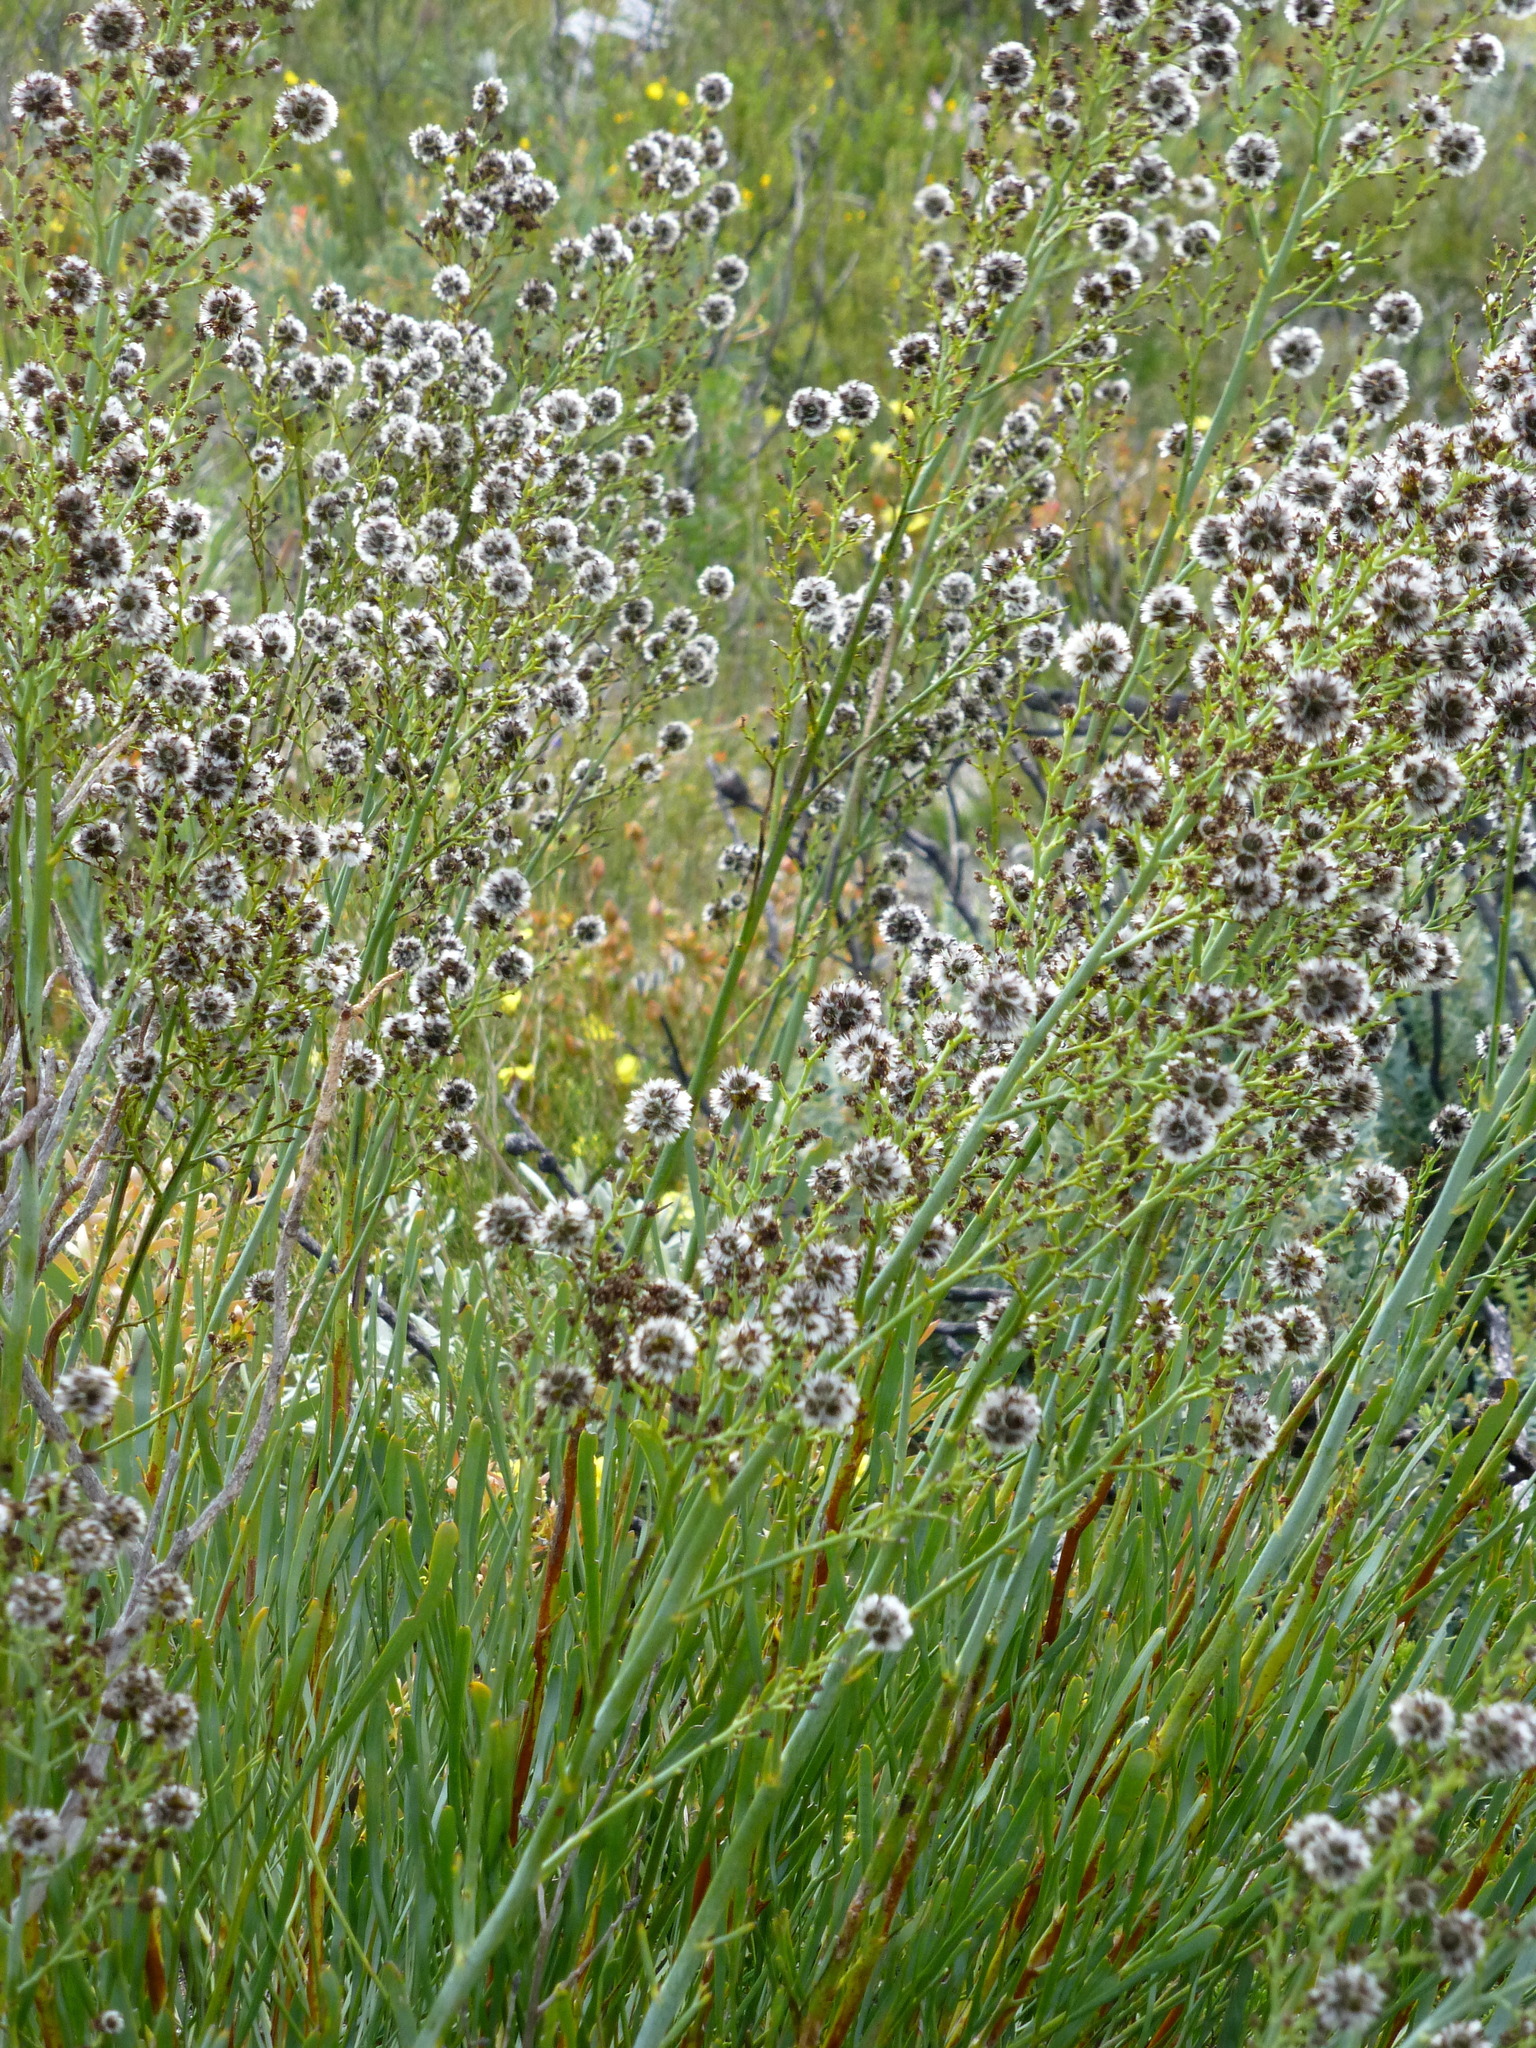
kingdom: Plantae
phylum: Tracheophyta
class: Magnoliopsida
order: Proteales
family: Proteaceae
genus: Stirlingia
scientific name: Stirlingia latifolia
